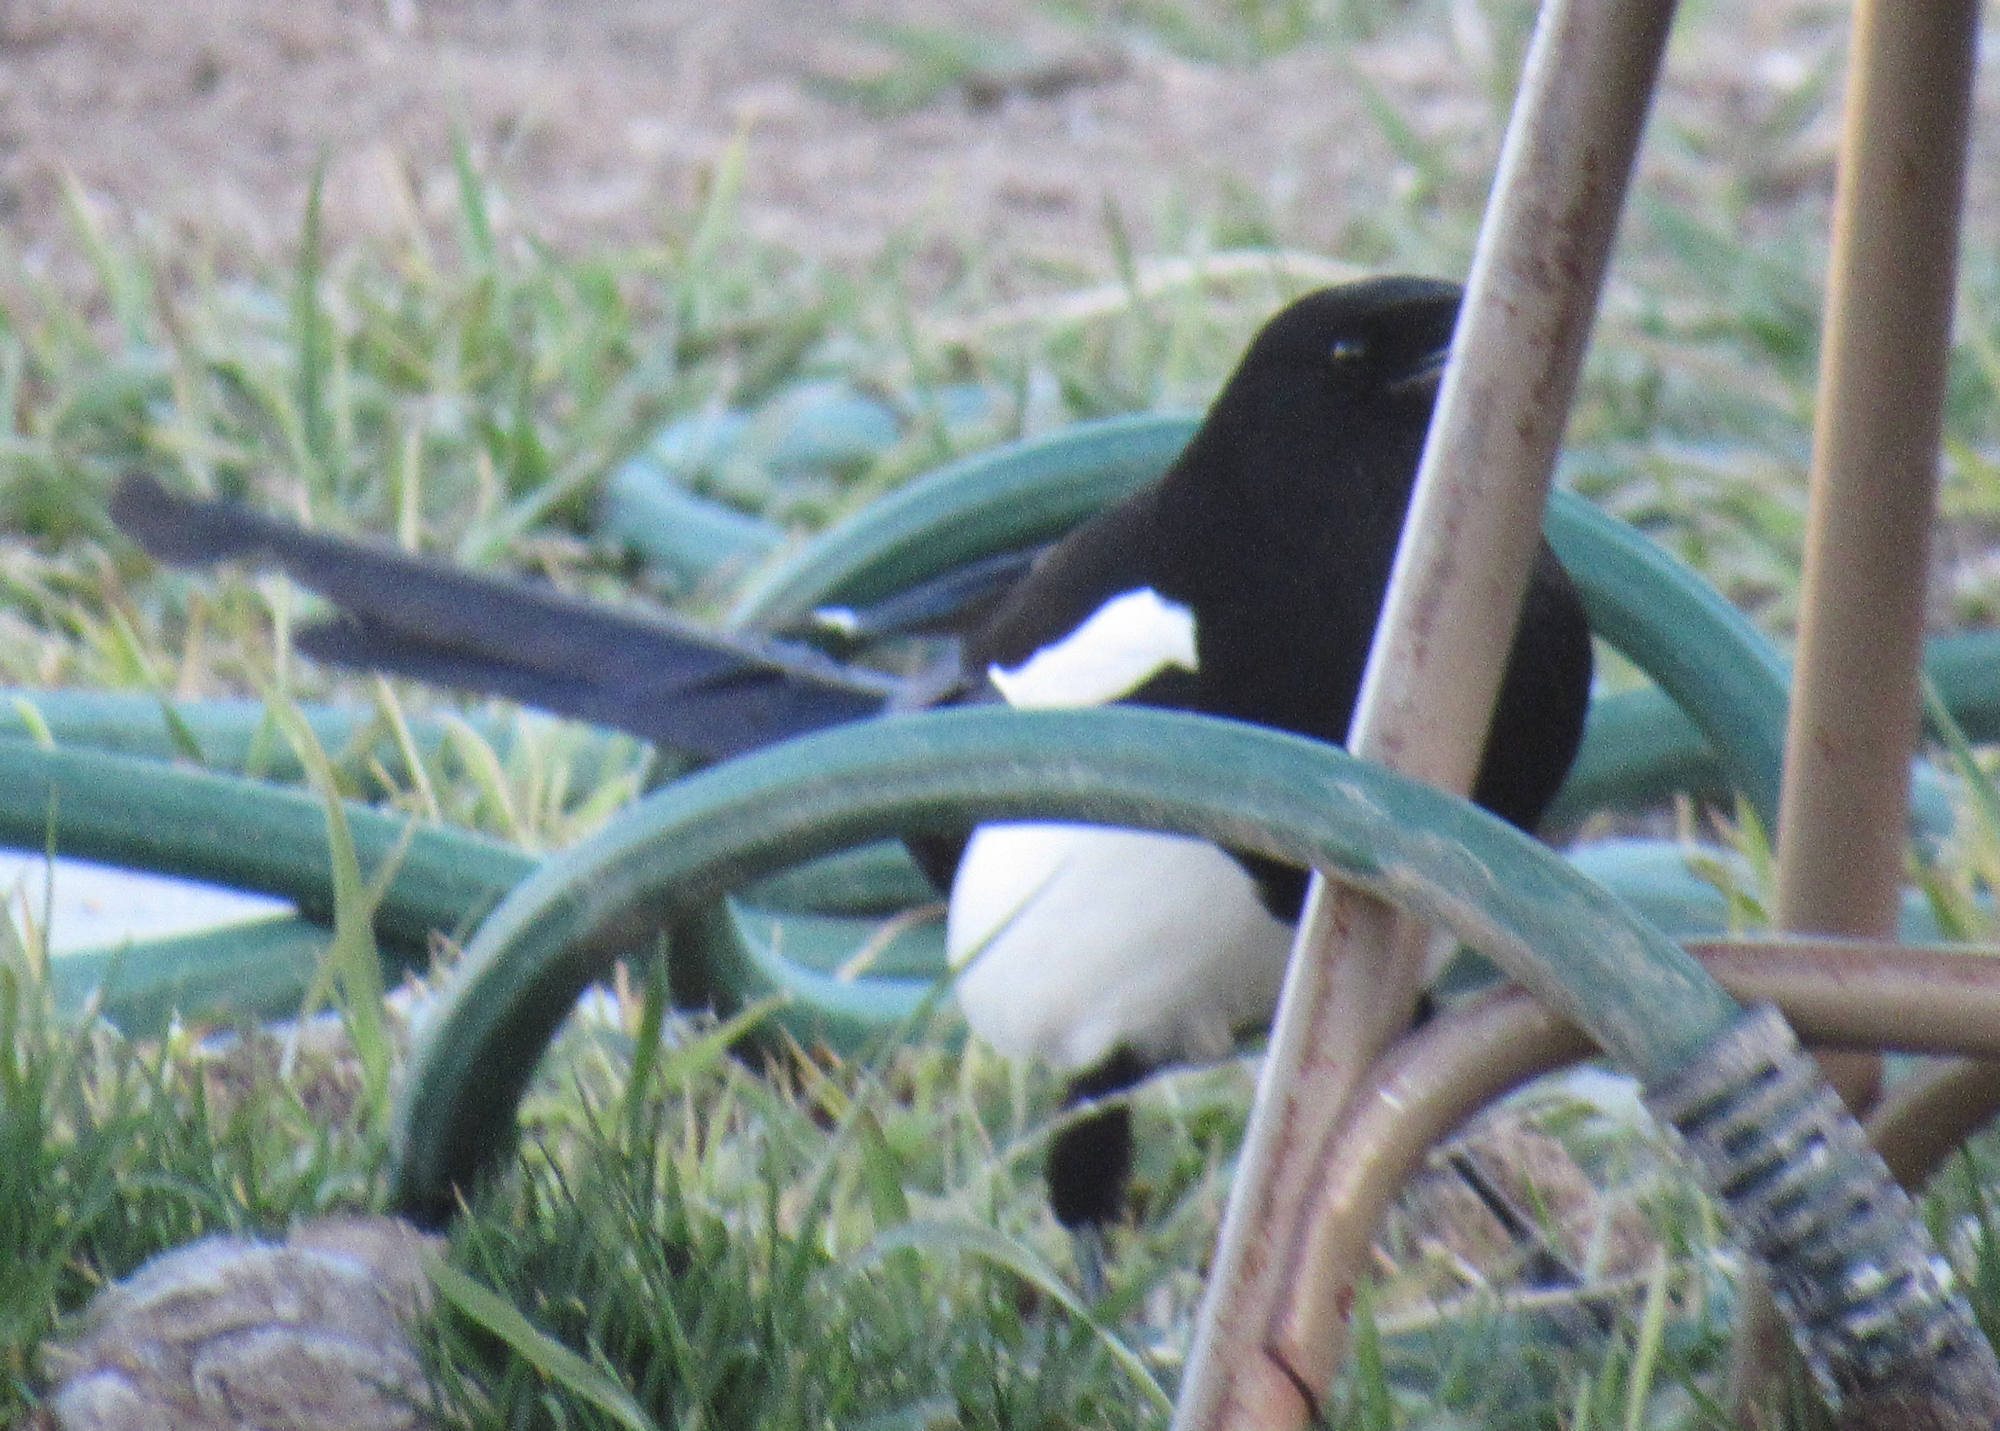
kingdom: Animalia
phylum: Chordata
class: Aves
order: Passeriformes
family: Corvidae
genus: Pica
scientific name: Pica hudsonia
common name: Black-billed magpie
